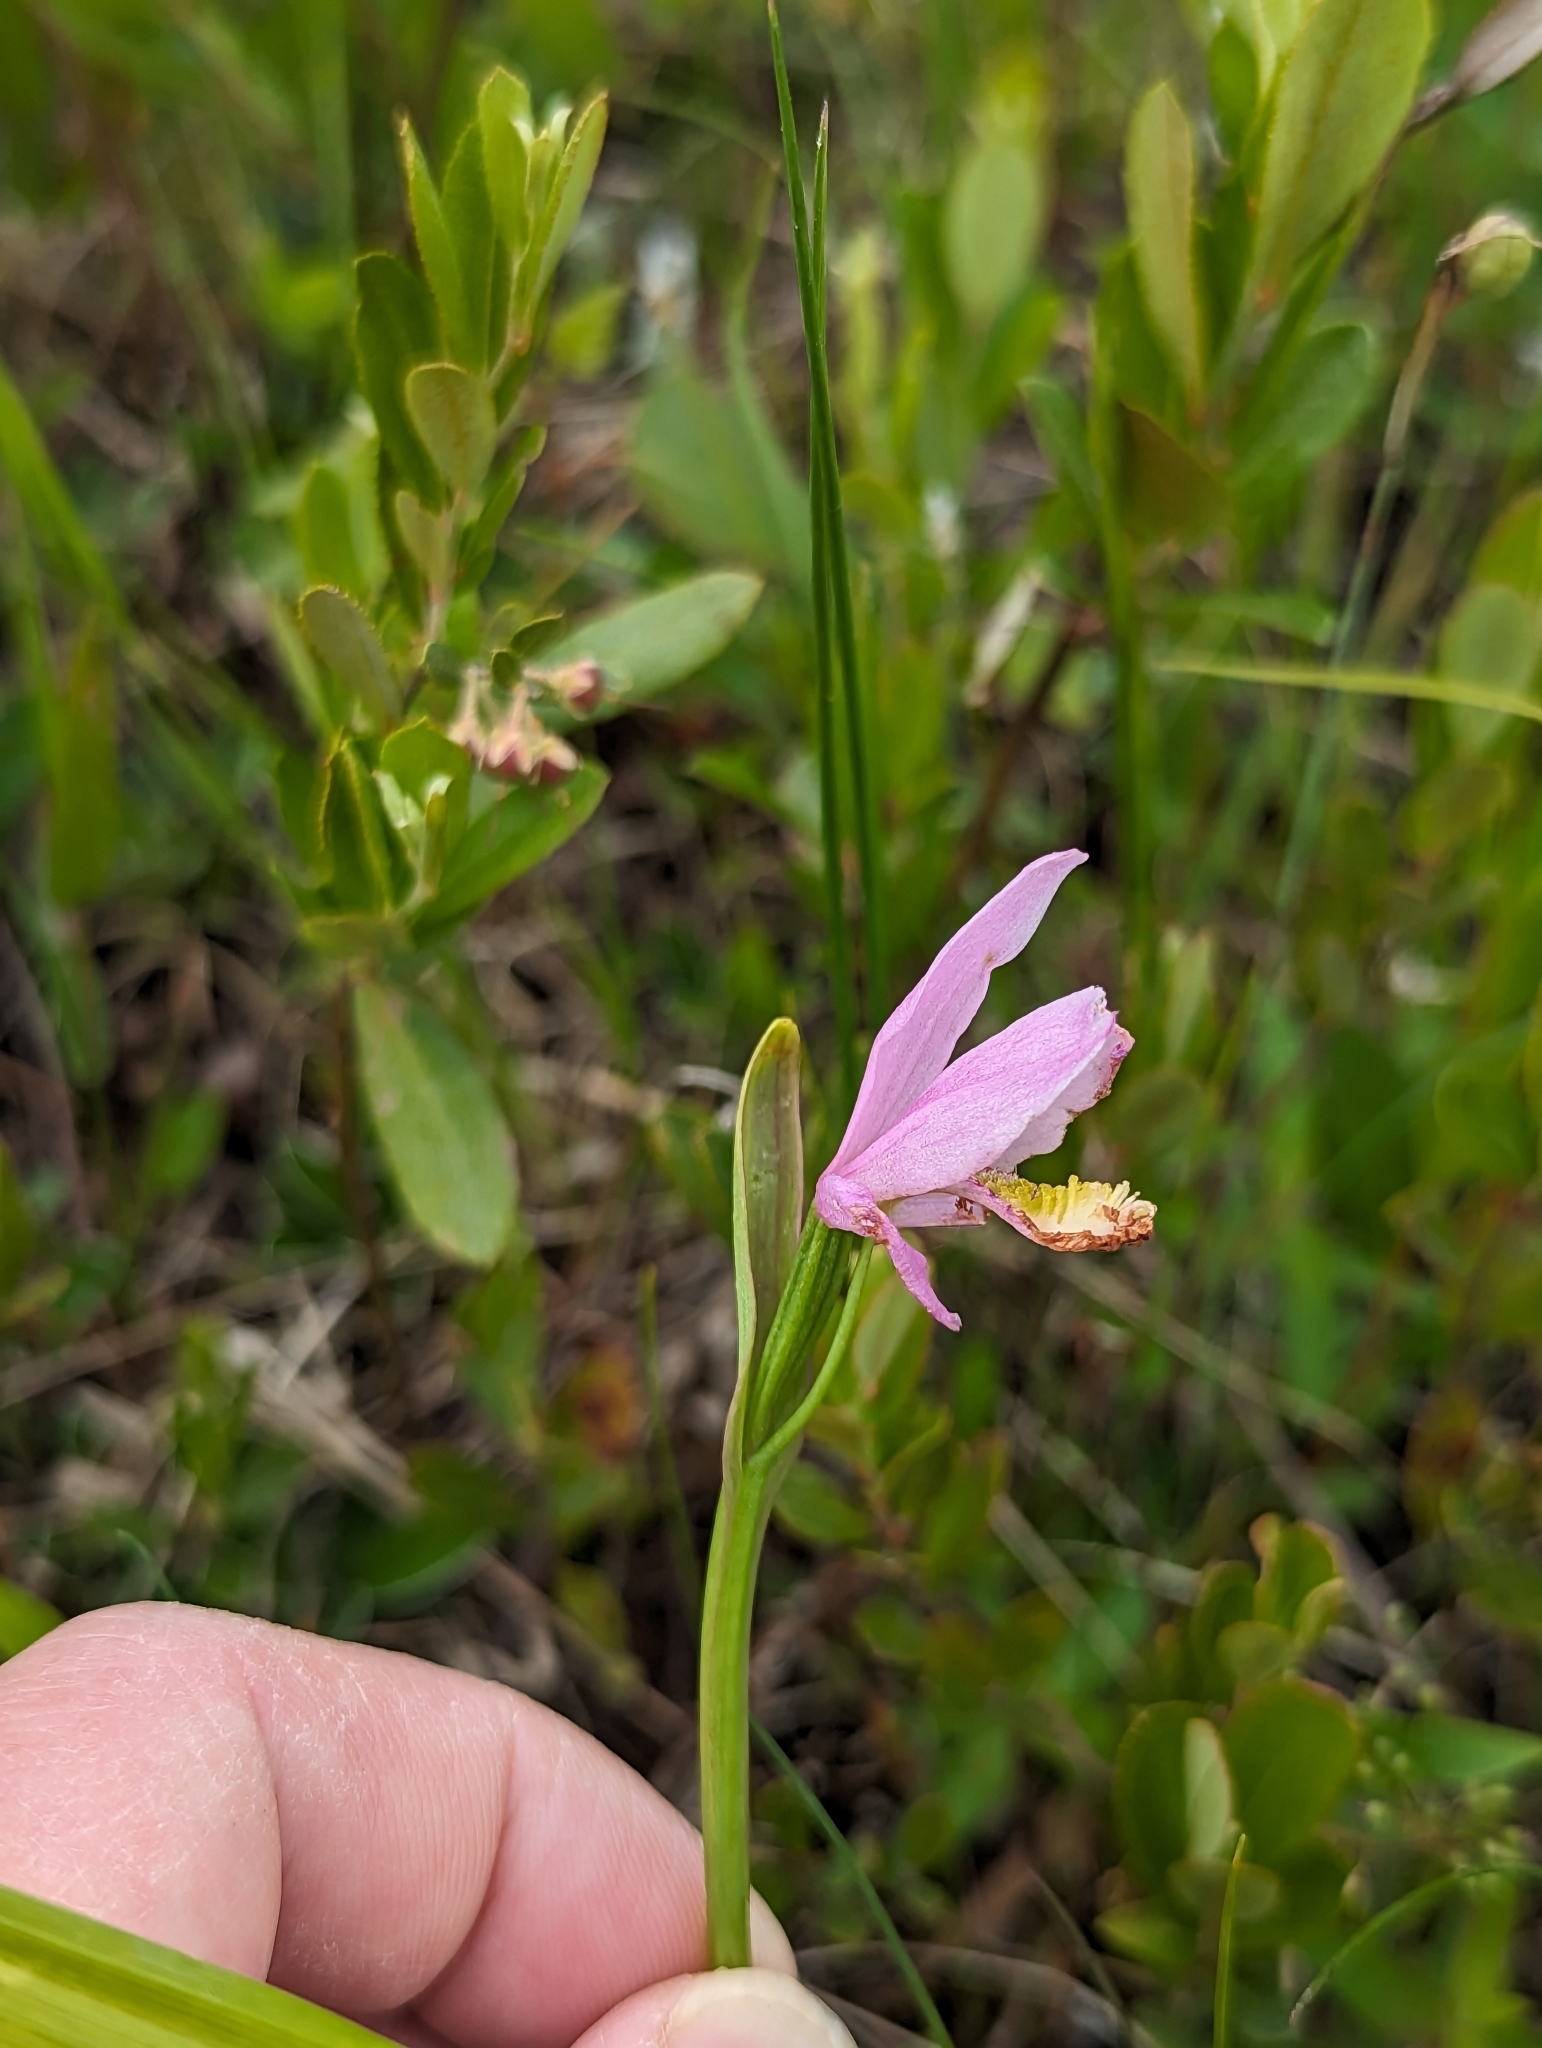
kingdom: Plantae
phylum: Tracheophyta
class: Liliopsida
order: Asparagales
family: Orchidaceae
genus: Pogonia
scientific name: Pogonia ophioglossoides
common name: Rose pogonia
